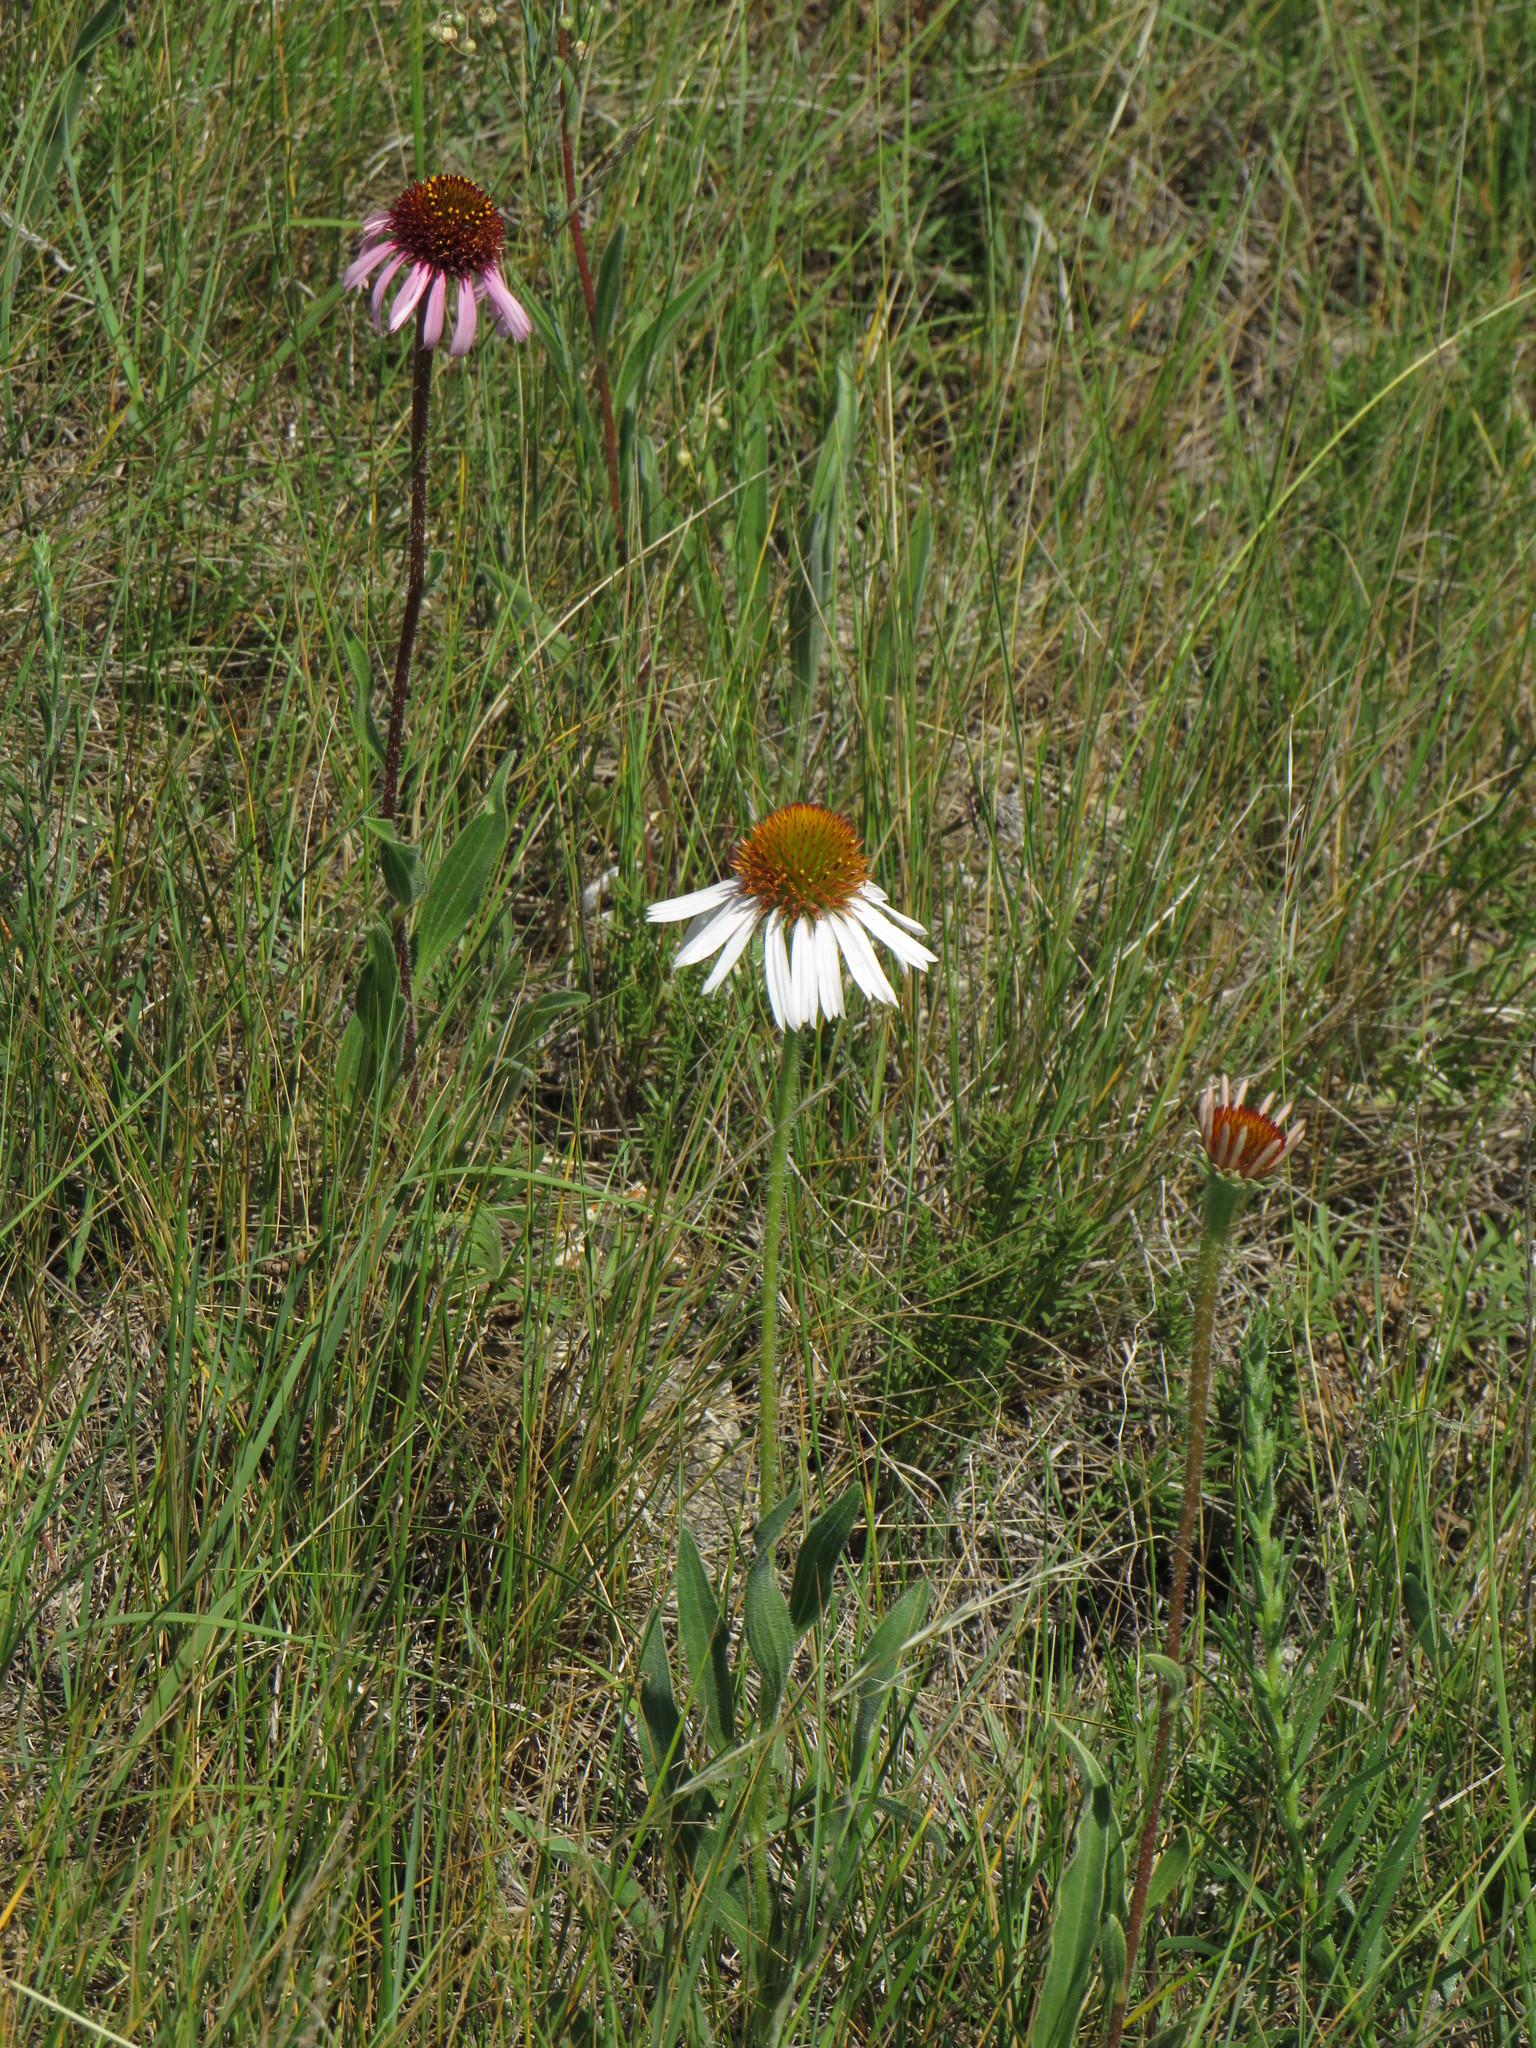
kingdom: Plantae
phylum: Tracheophyta
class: Magnoliopsida
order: Asterales
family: Asteraceae
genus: Echinacea
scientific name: Echinacea angustifolia
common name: Black-sampson echinacea
